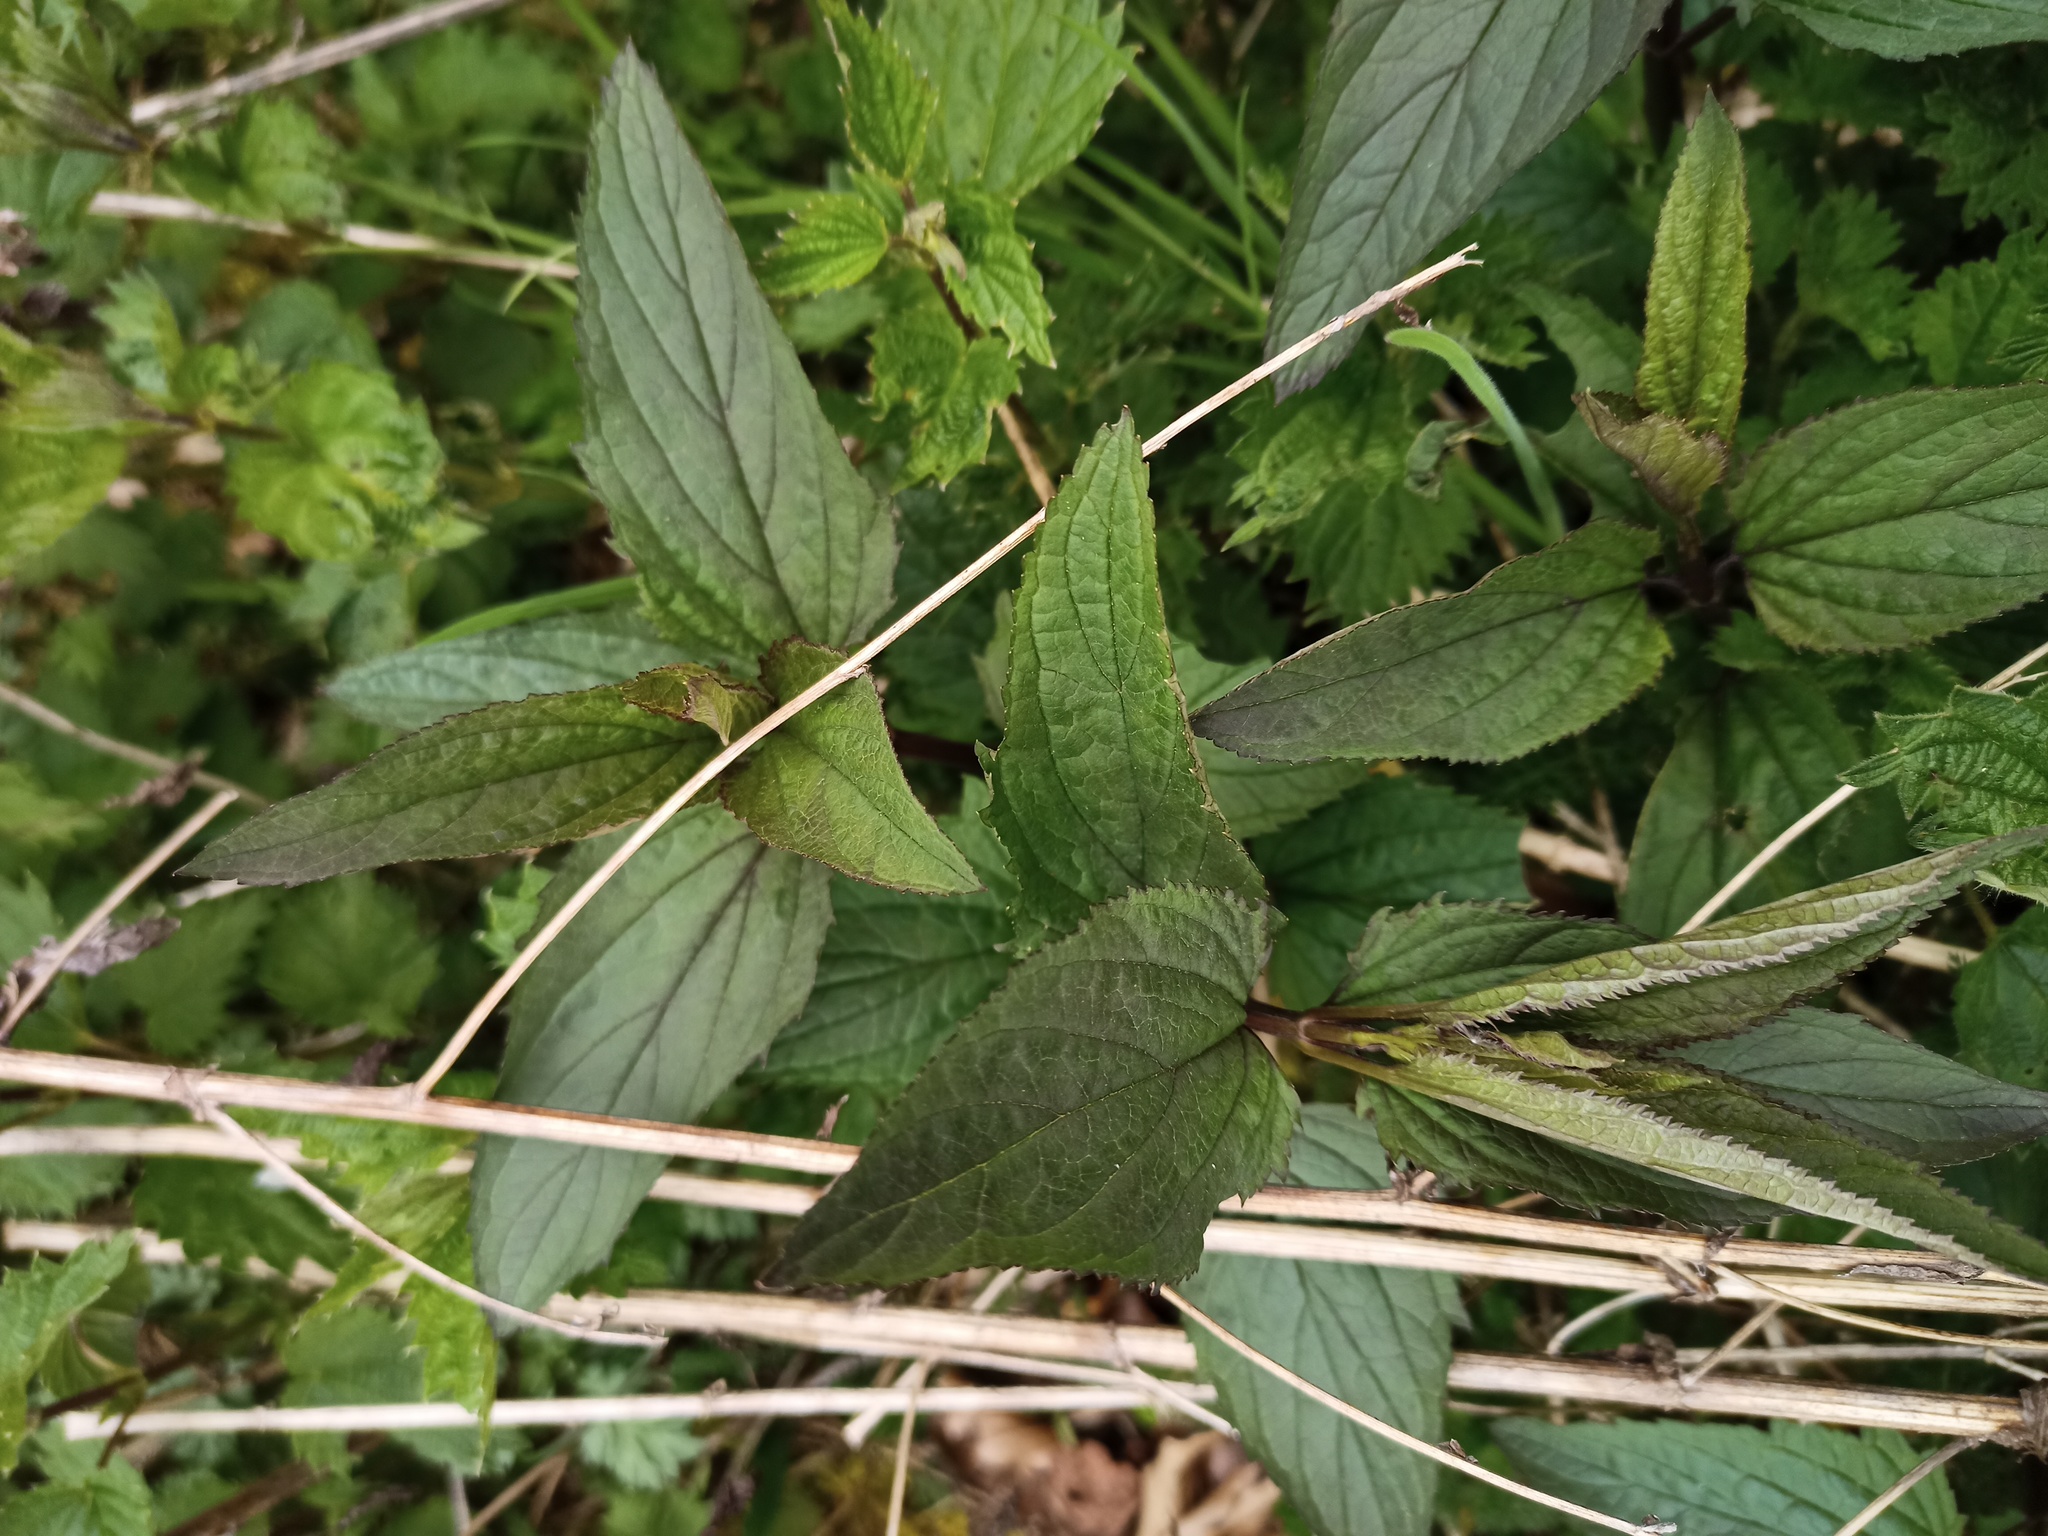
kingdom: Plantae
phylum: Tracheophyta
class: Magnoliopsida
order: Lamiales
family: Scrophulariaceae
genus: Scrophularia
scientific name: Scrophularia nodosa
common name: Common figwort
